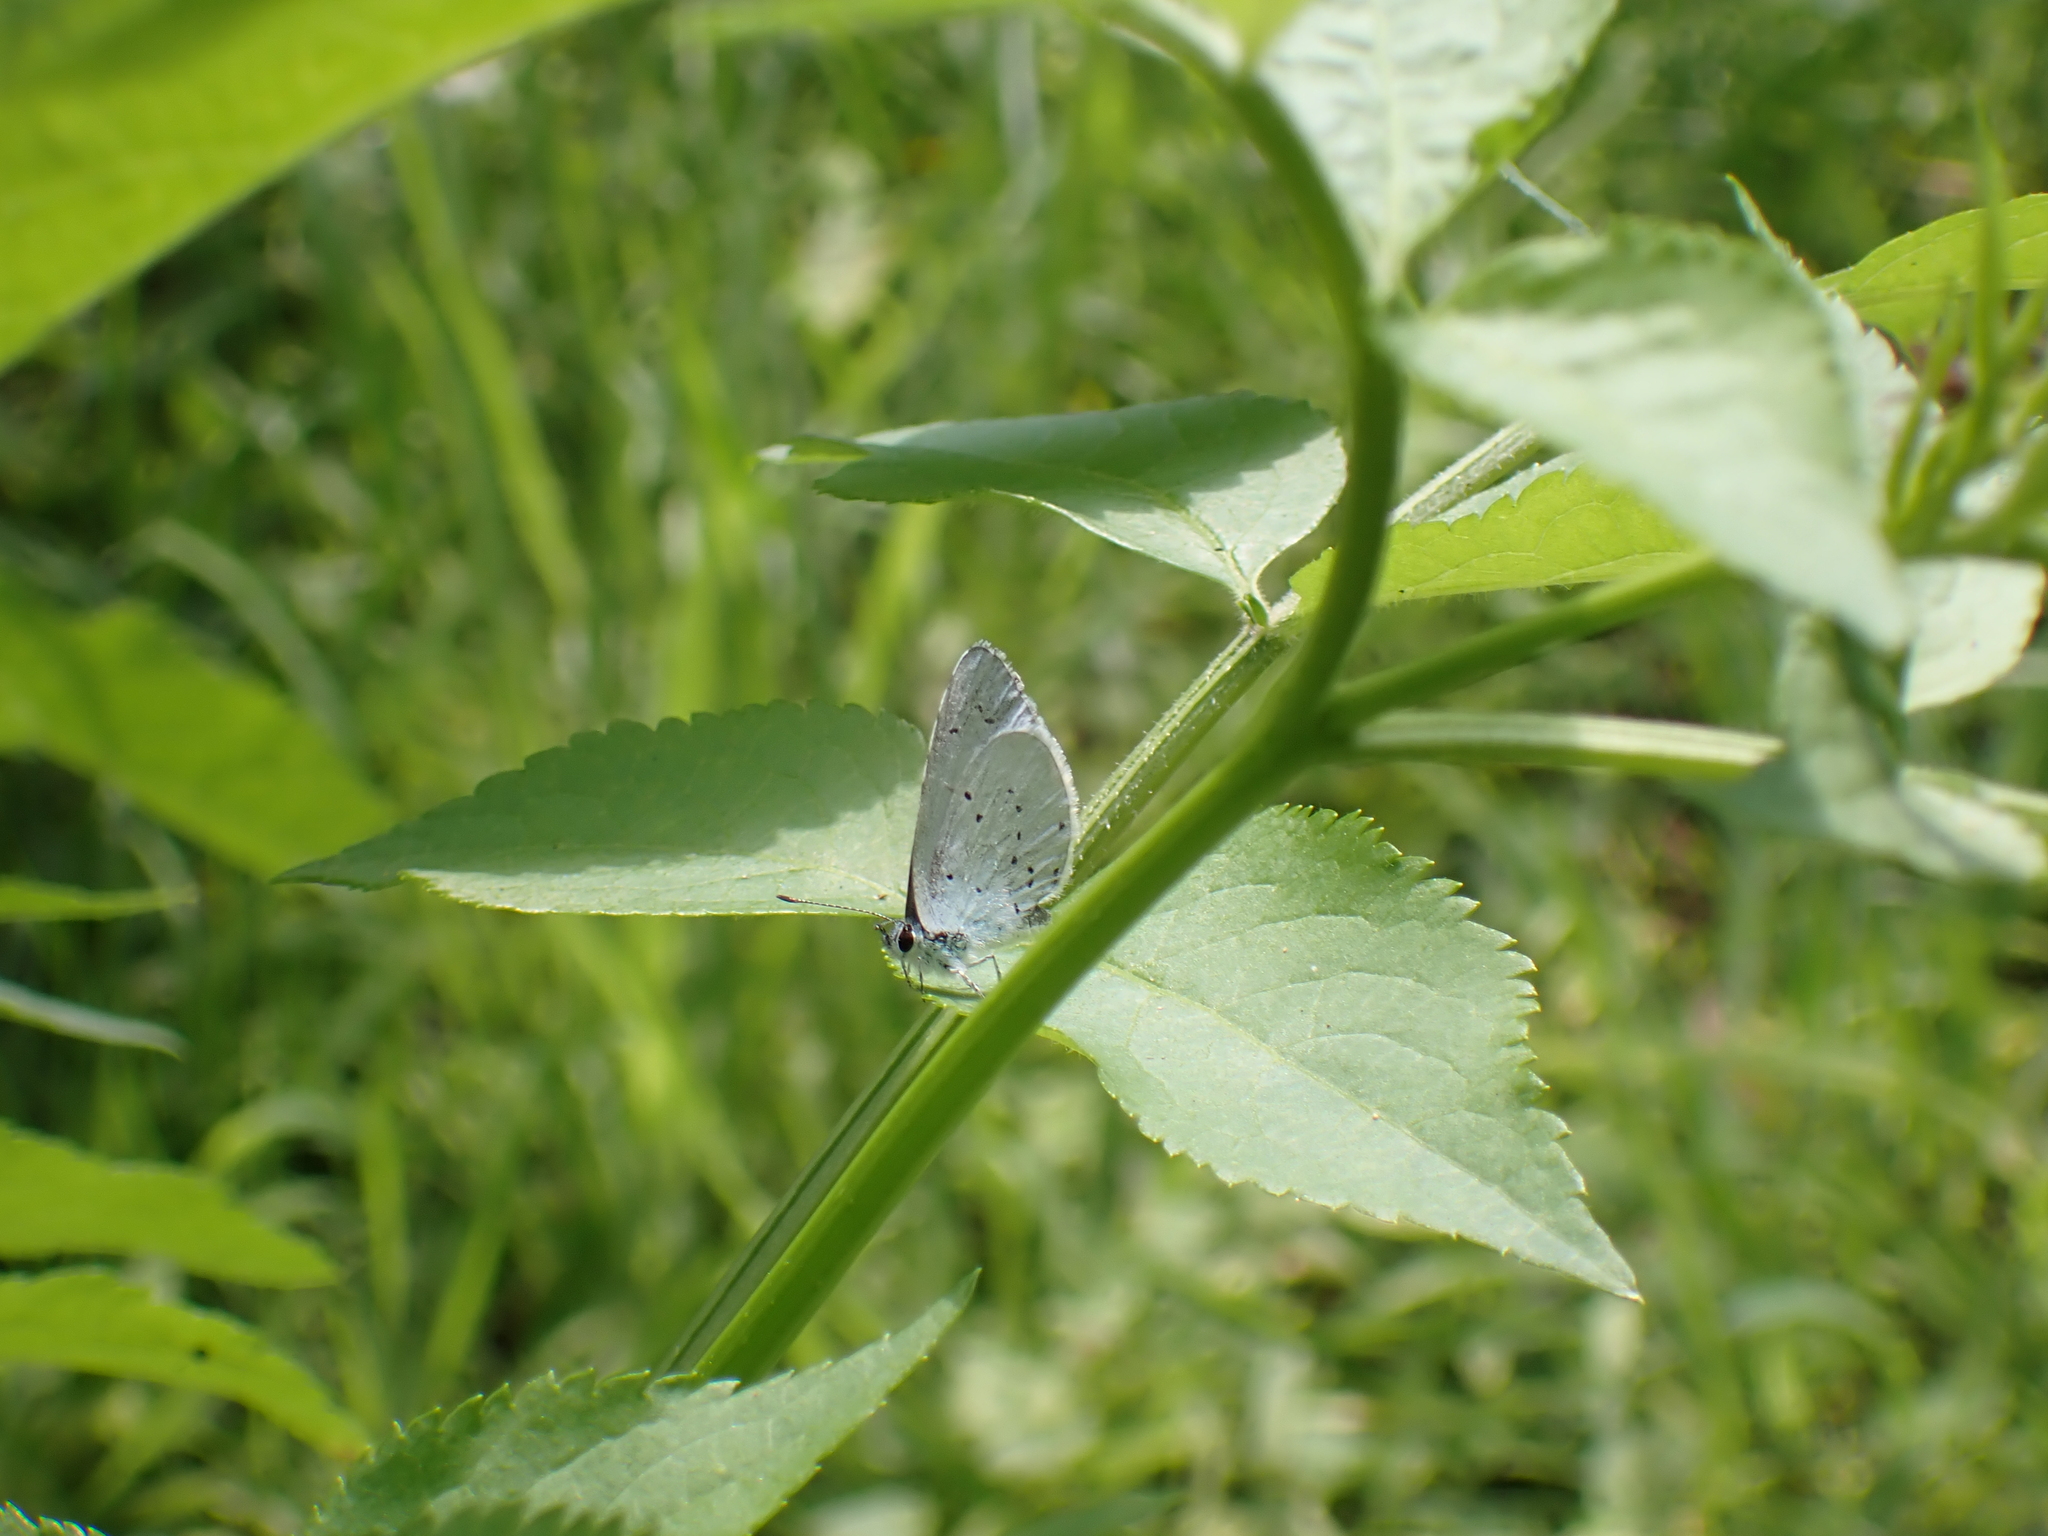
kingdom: Animalia
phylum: Arthropoda
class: Insecta
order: Lepidoptera
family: Lycaenidae
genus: Celastrina
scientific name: Celastrina argiolus
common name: Holly blue
